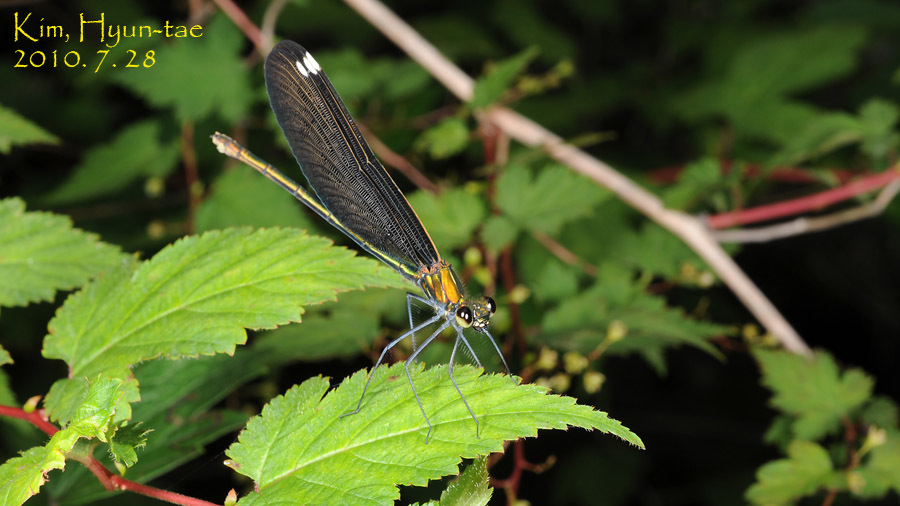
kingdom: Animalia
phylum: Arthropoda
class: Insecta
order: Odonata
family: Calopterygidae
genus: Calopteryx
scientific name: Calopteryx japonica
